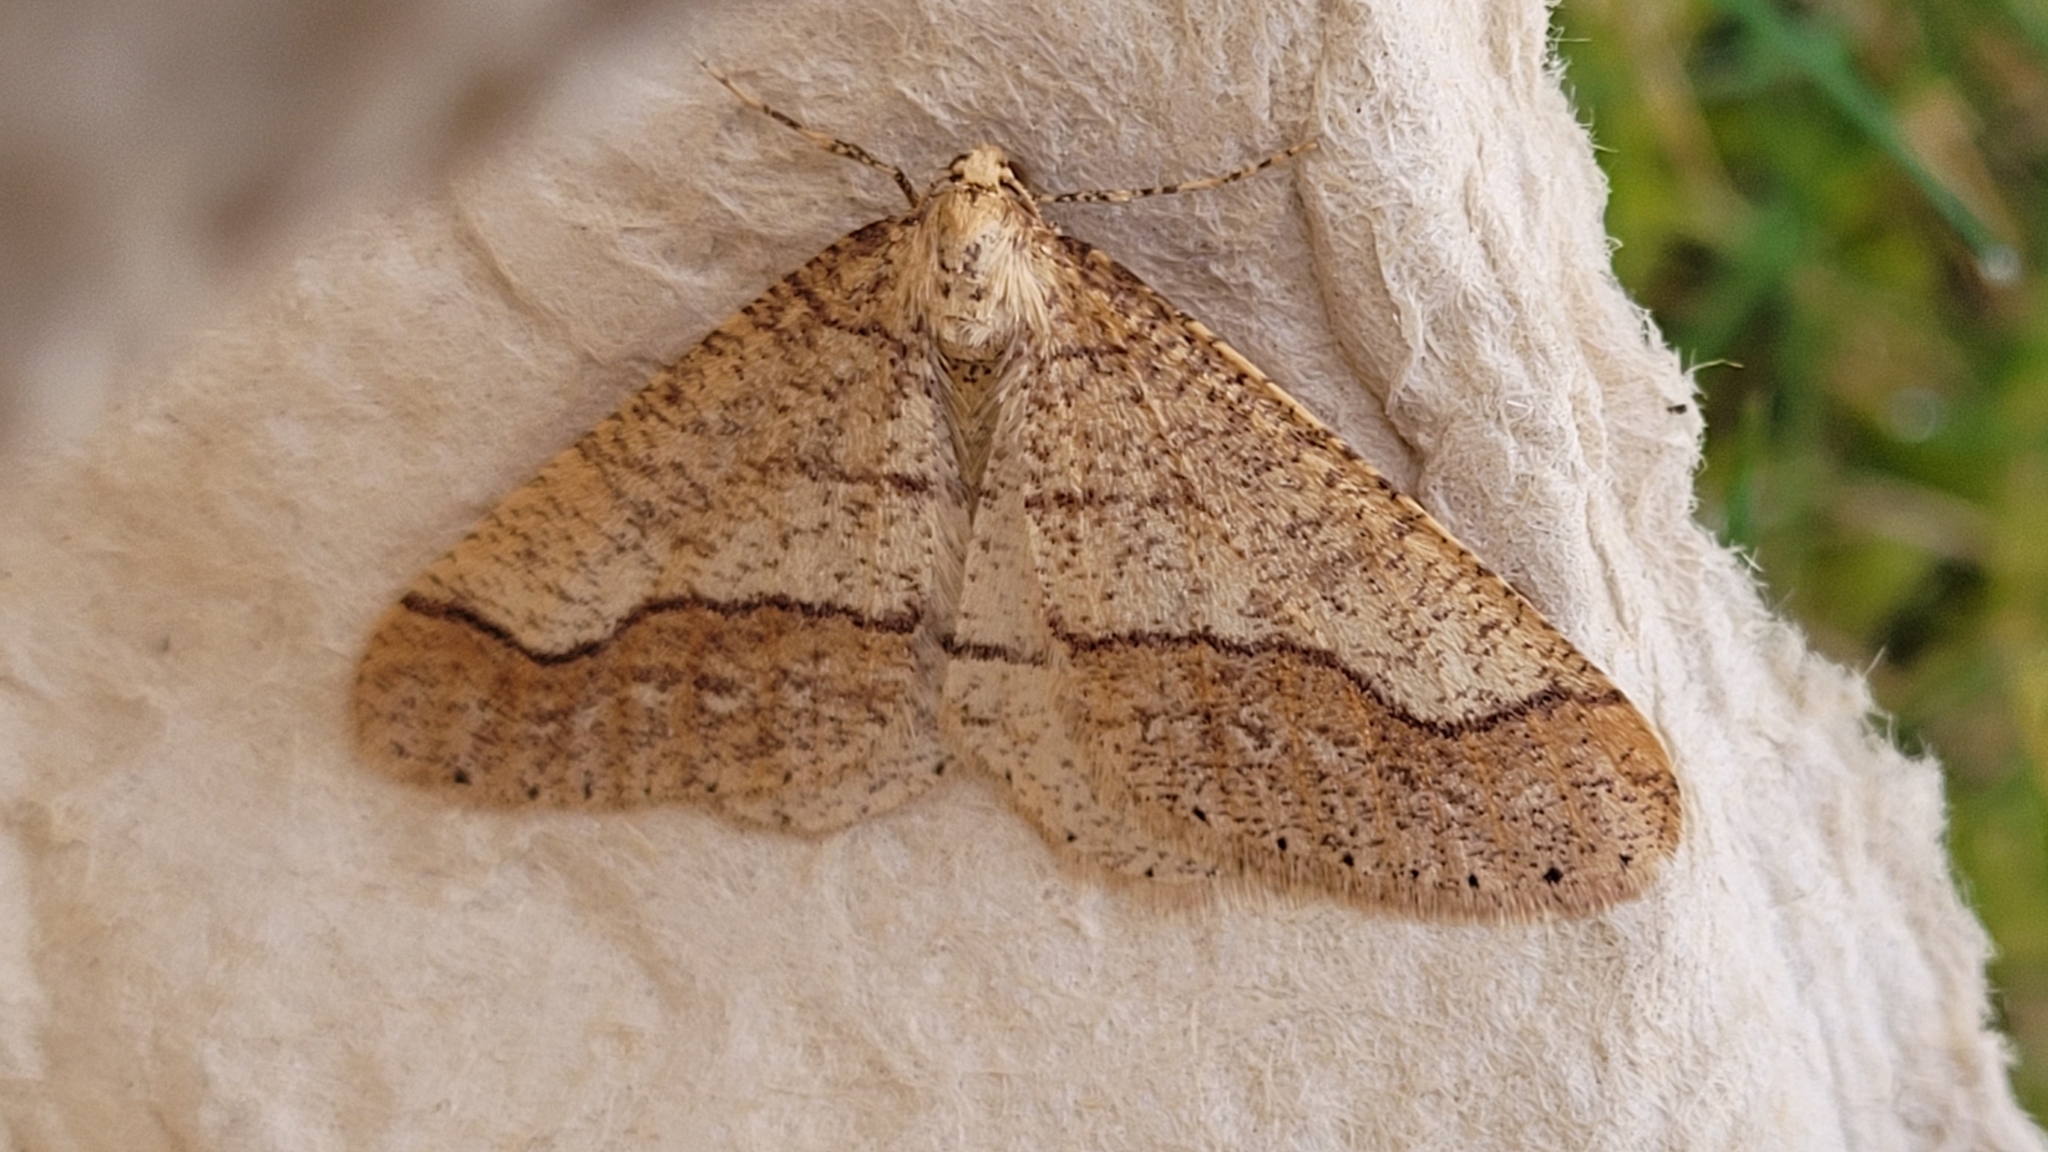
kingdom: Animalia
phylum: Arthropoda
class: Insecta
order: Lepidoptera
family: Geometridae
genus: Agriopis
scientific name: Agriopis marginaria
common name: Dotted border
